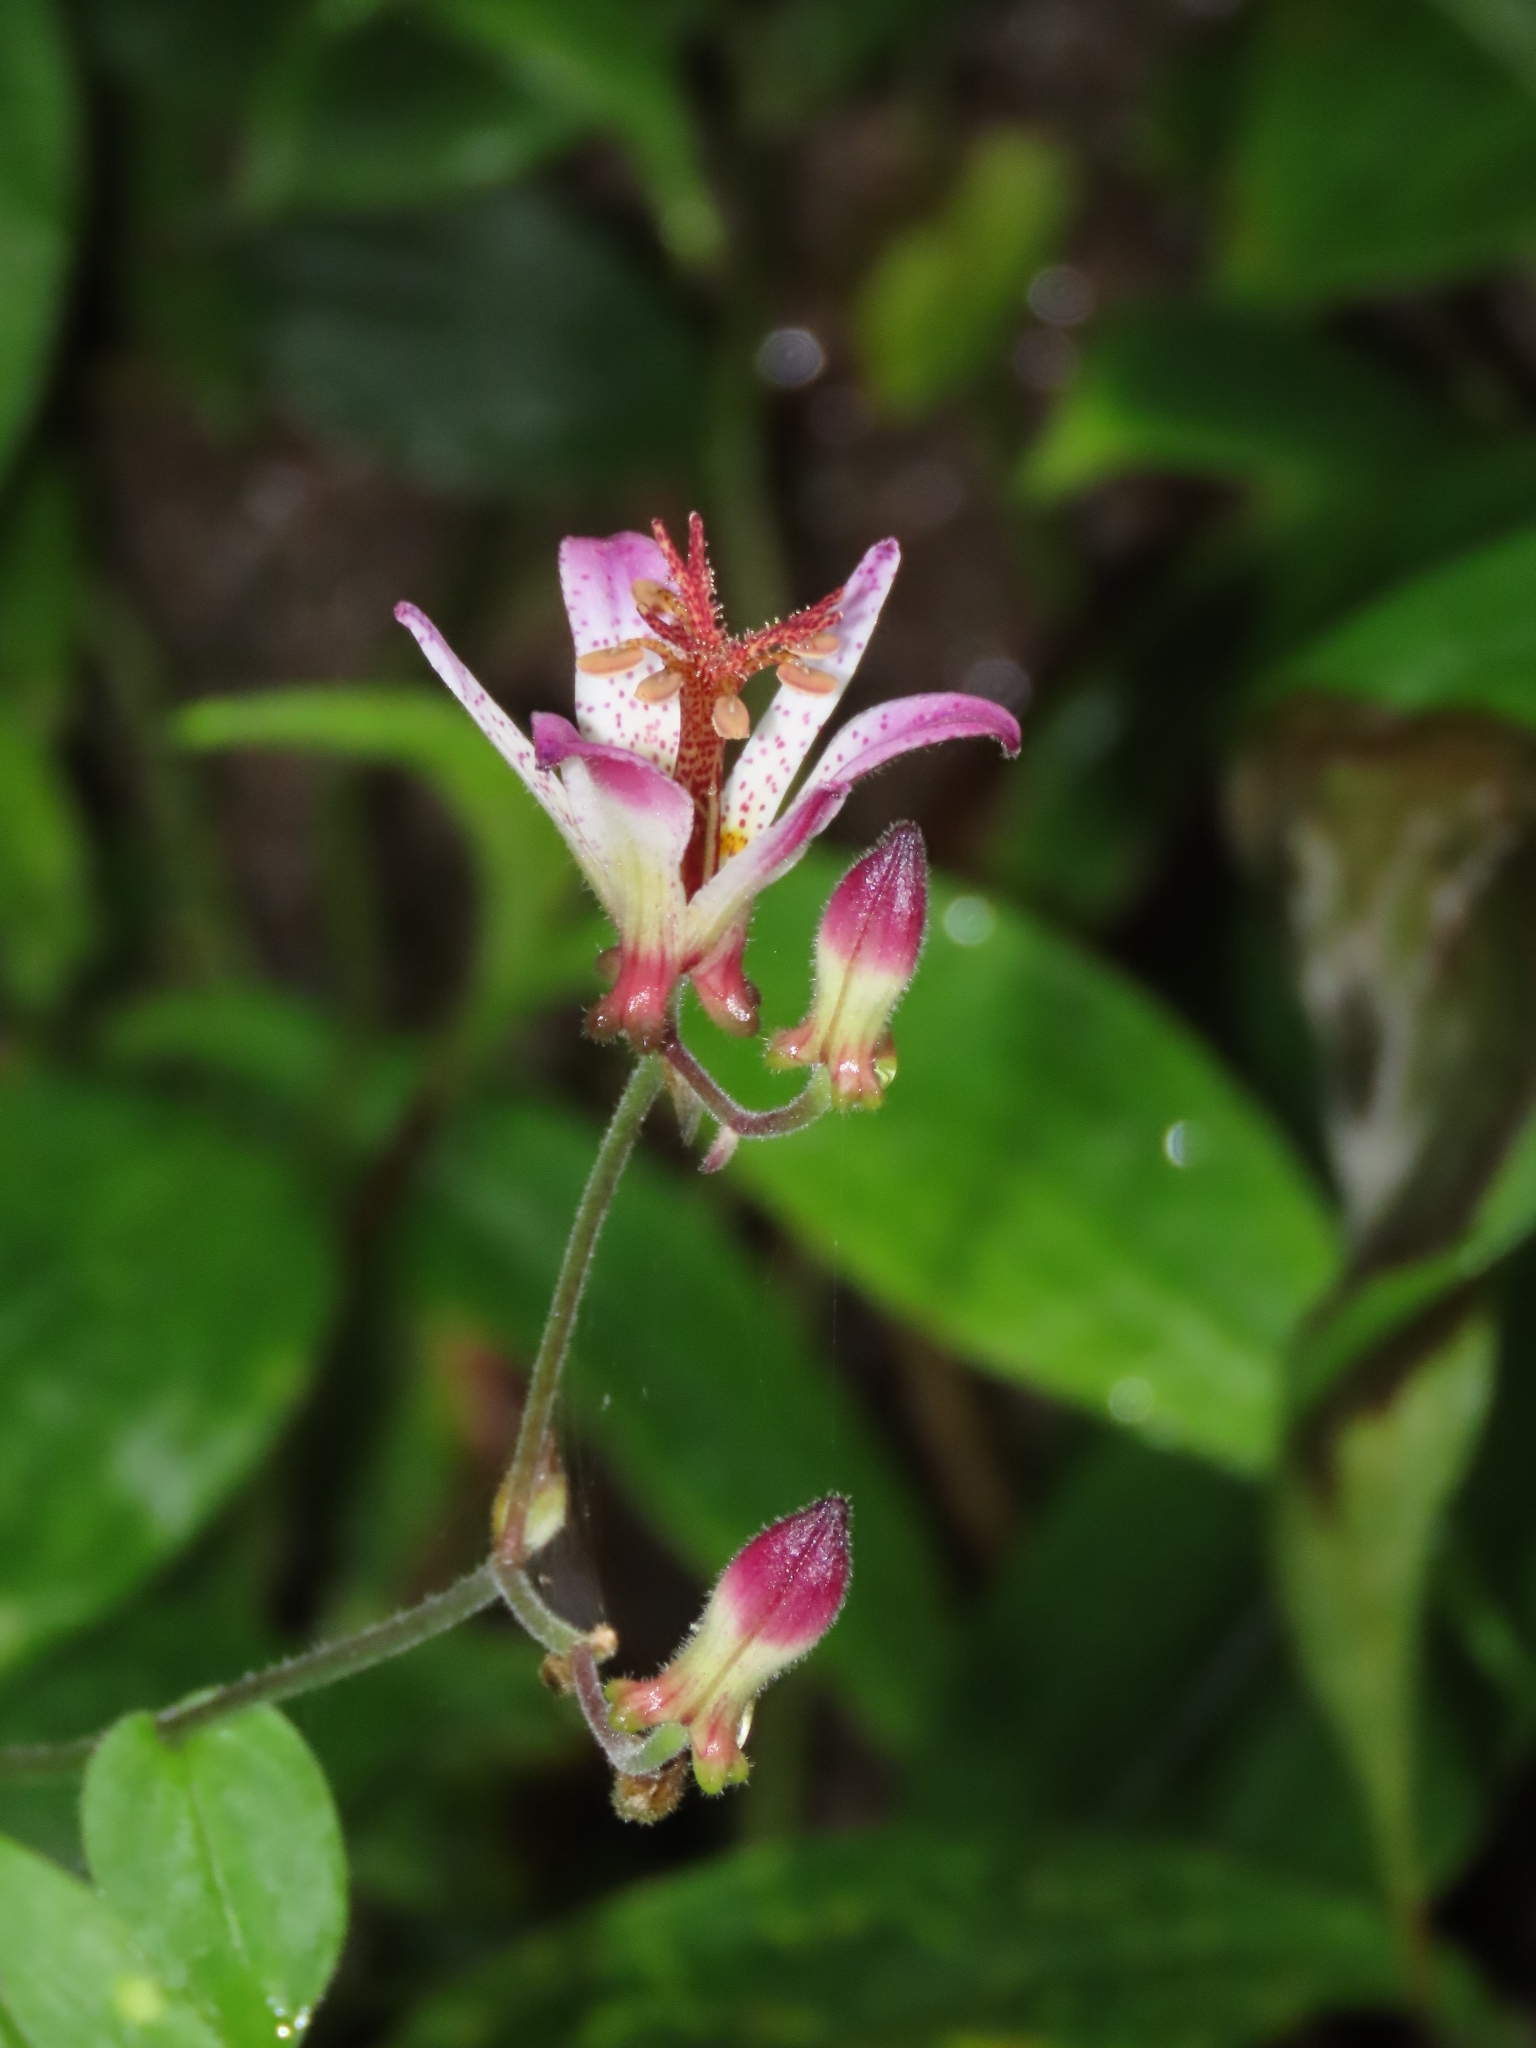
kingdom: Plantae
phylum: Tracheophyta
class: Liliopsida
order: Liliales
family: Liliaceae
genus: Tricyrtis
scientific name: Tricyrtis formosana
